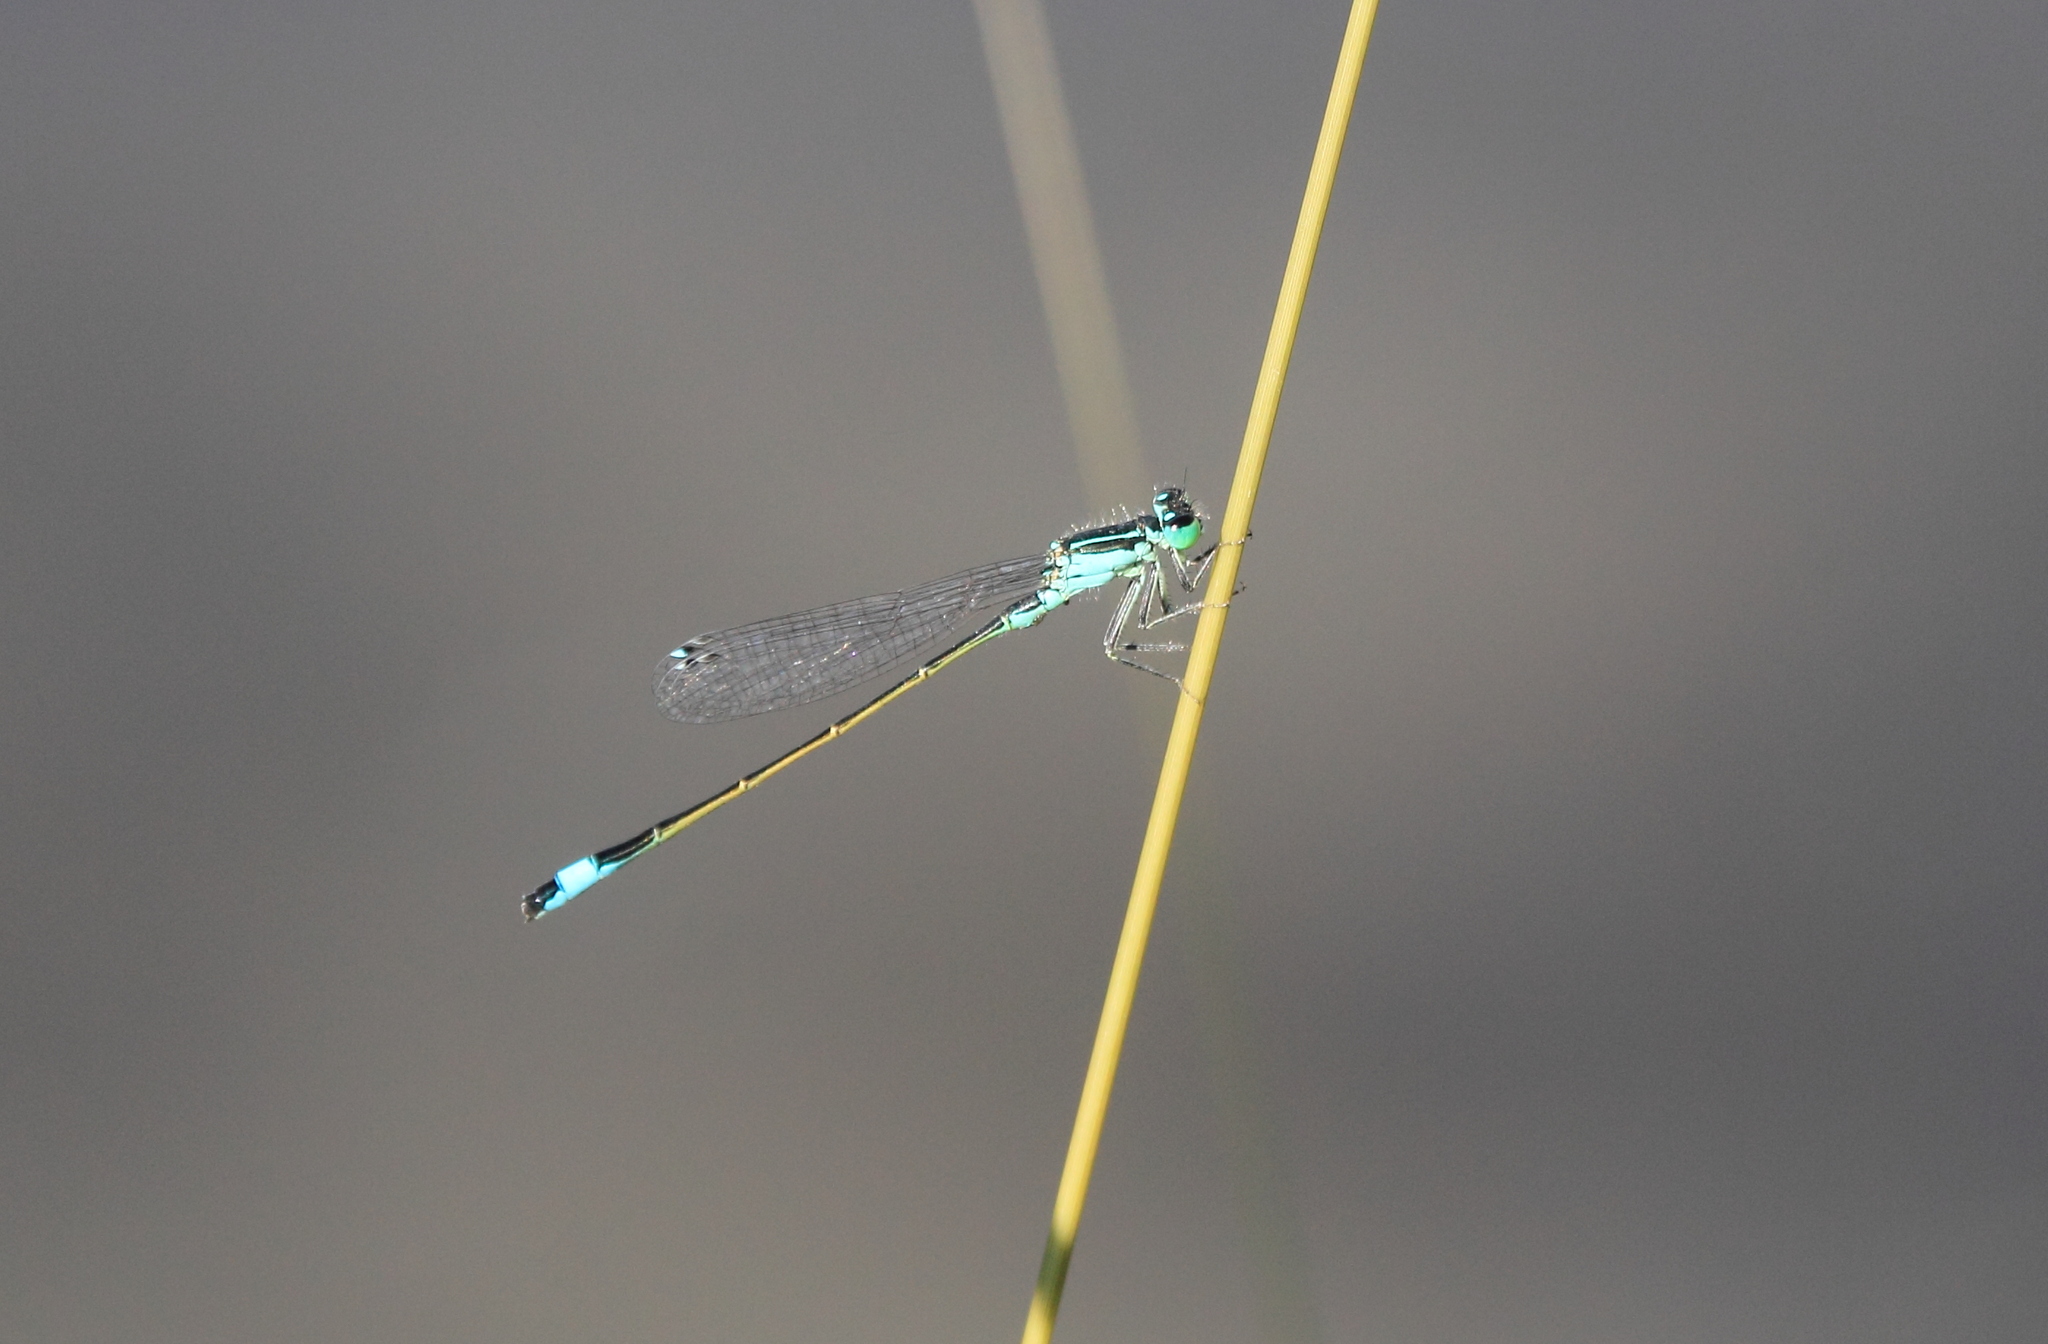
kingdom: Animalia
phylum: Arthropoda
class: Insecta
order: Odonata
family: Coenagrionidae
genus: Ischnura
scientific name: Ischnura elegans
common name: Blue-tailed damselfly
